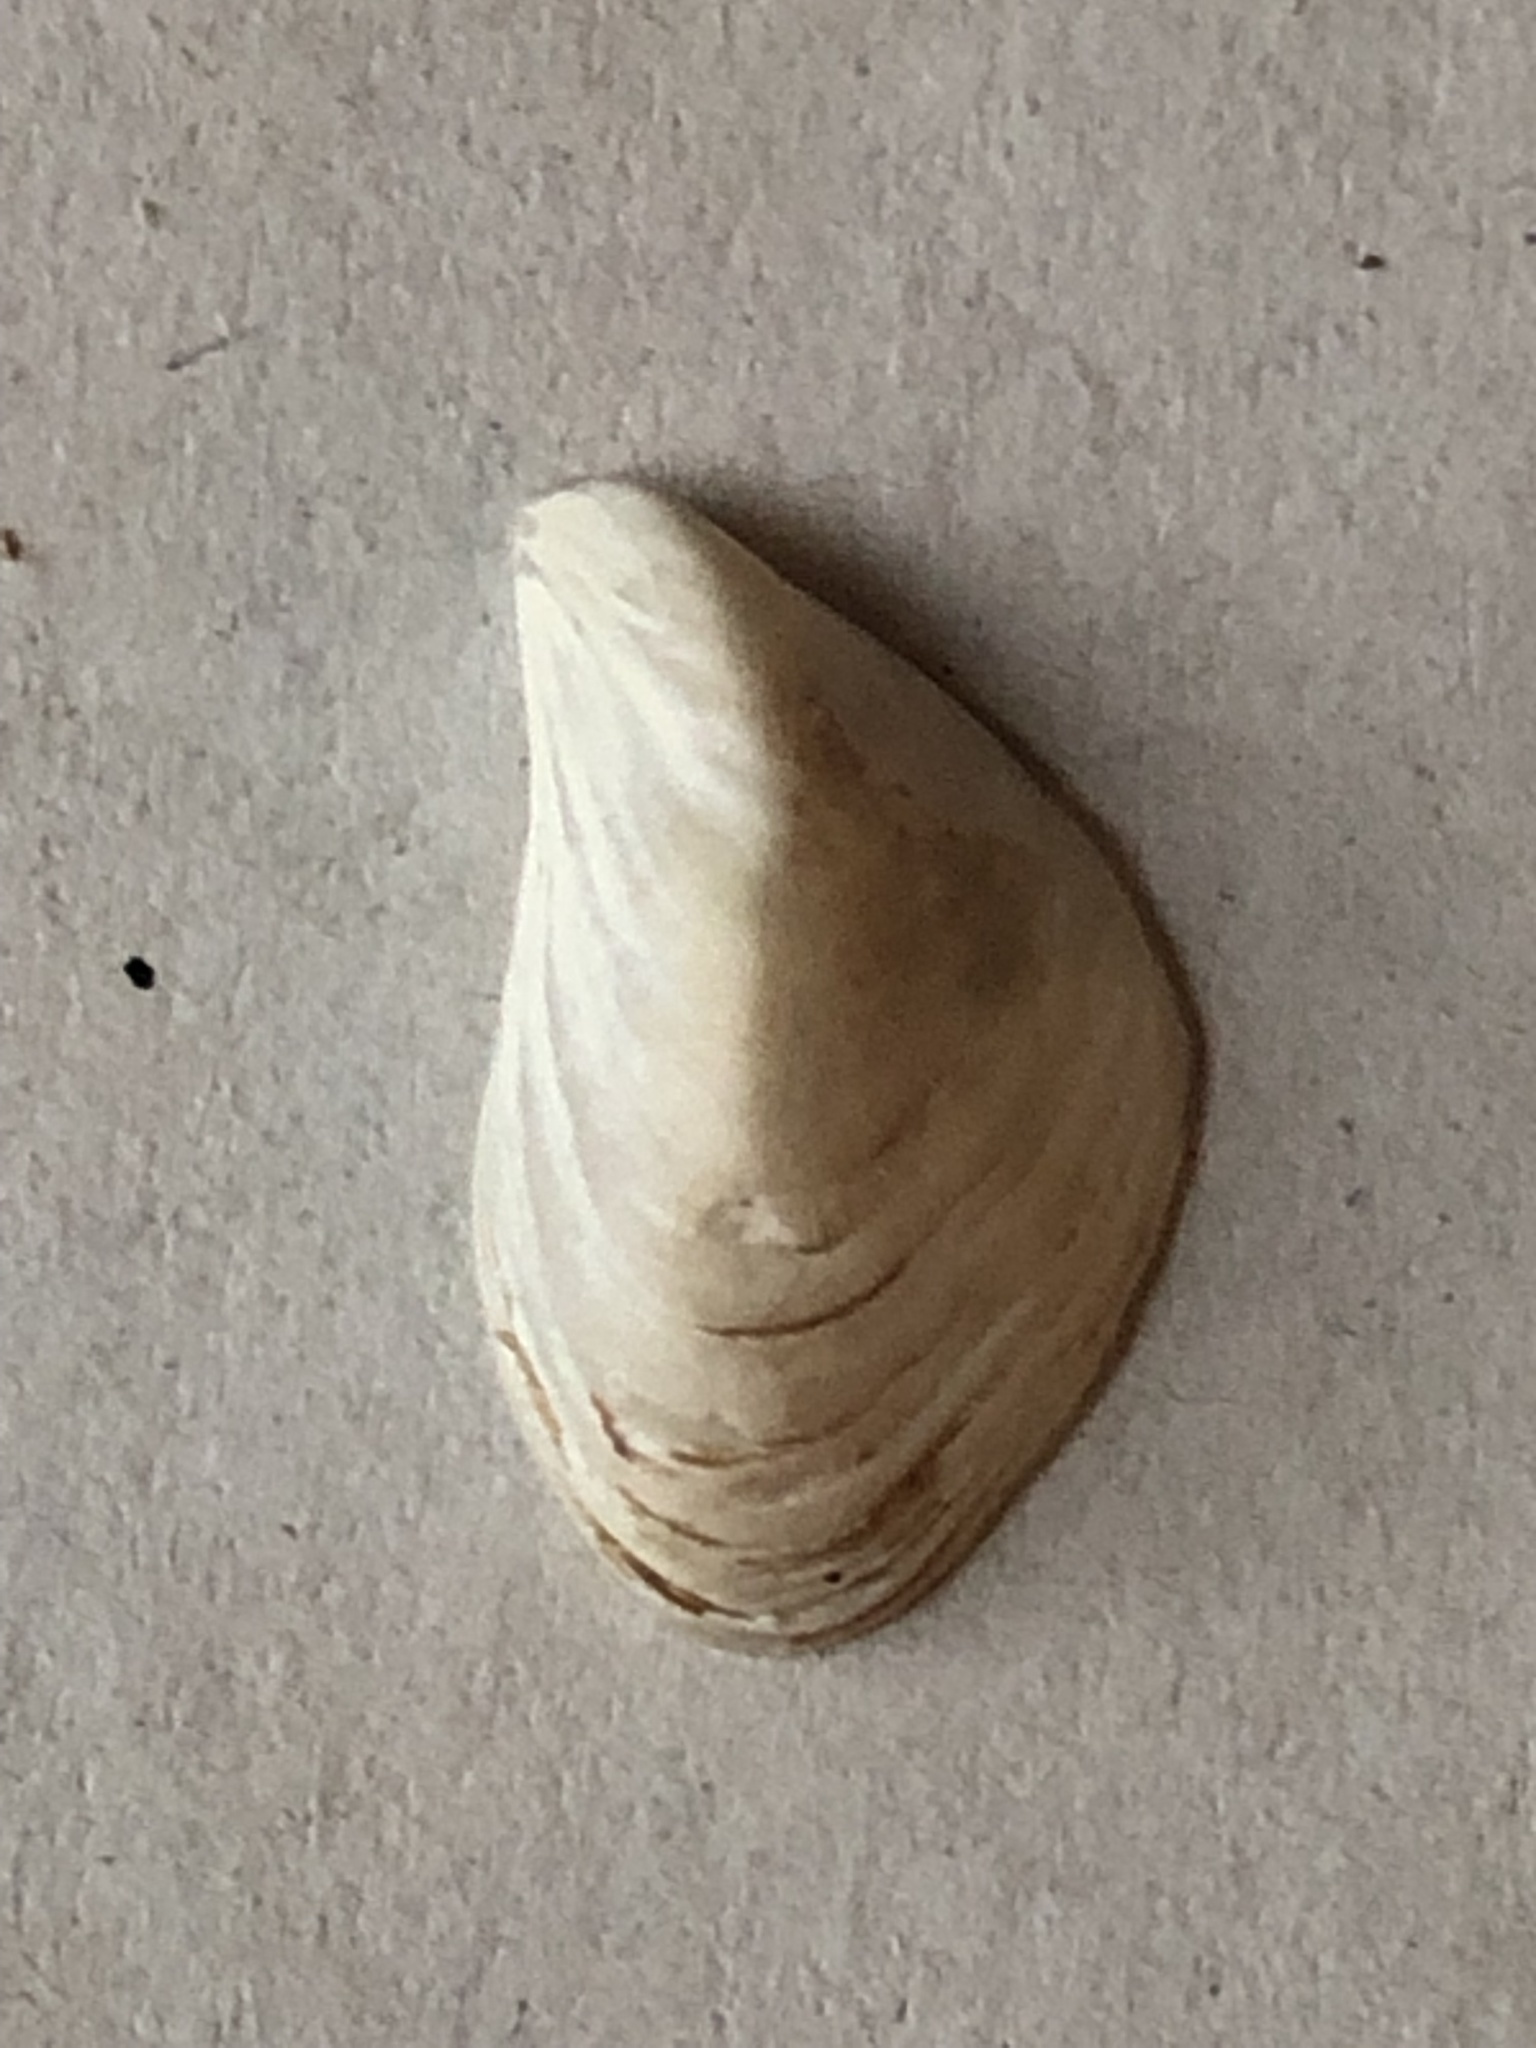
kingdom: Animalia
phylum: Mollusca
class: Bivalvia
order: Myida
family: Dreissenidae
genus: Dreissena
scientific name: Dreissena bugensis
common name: Quagga mussel
